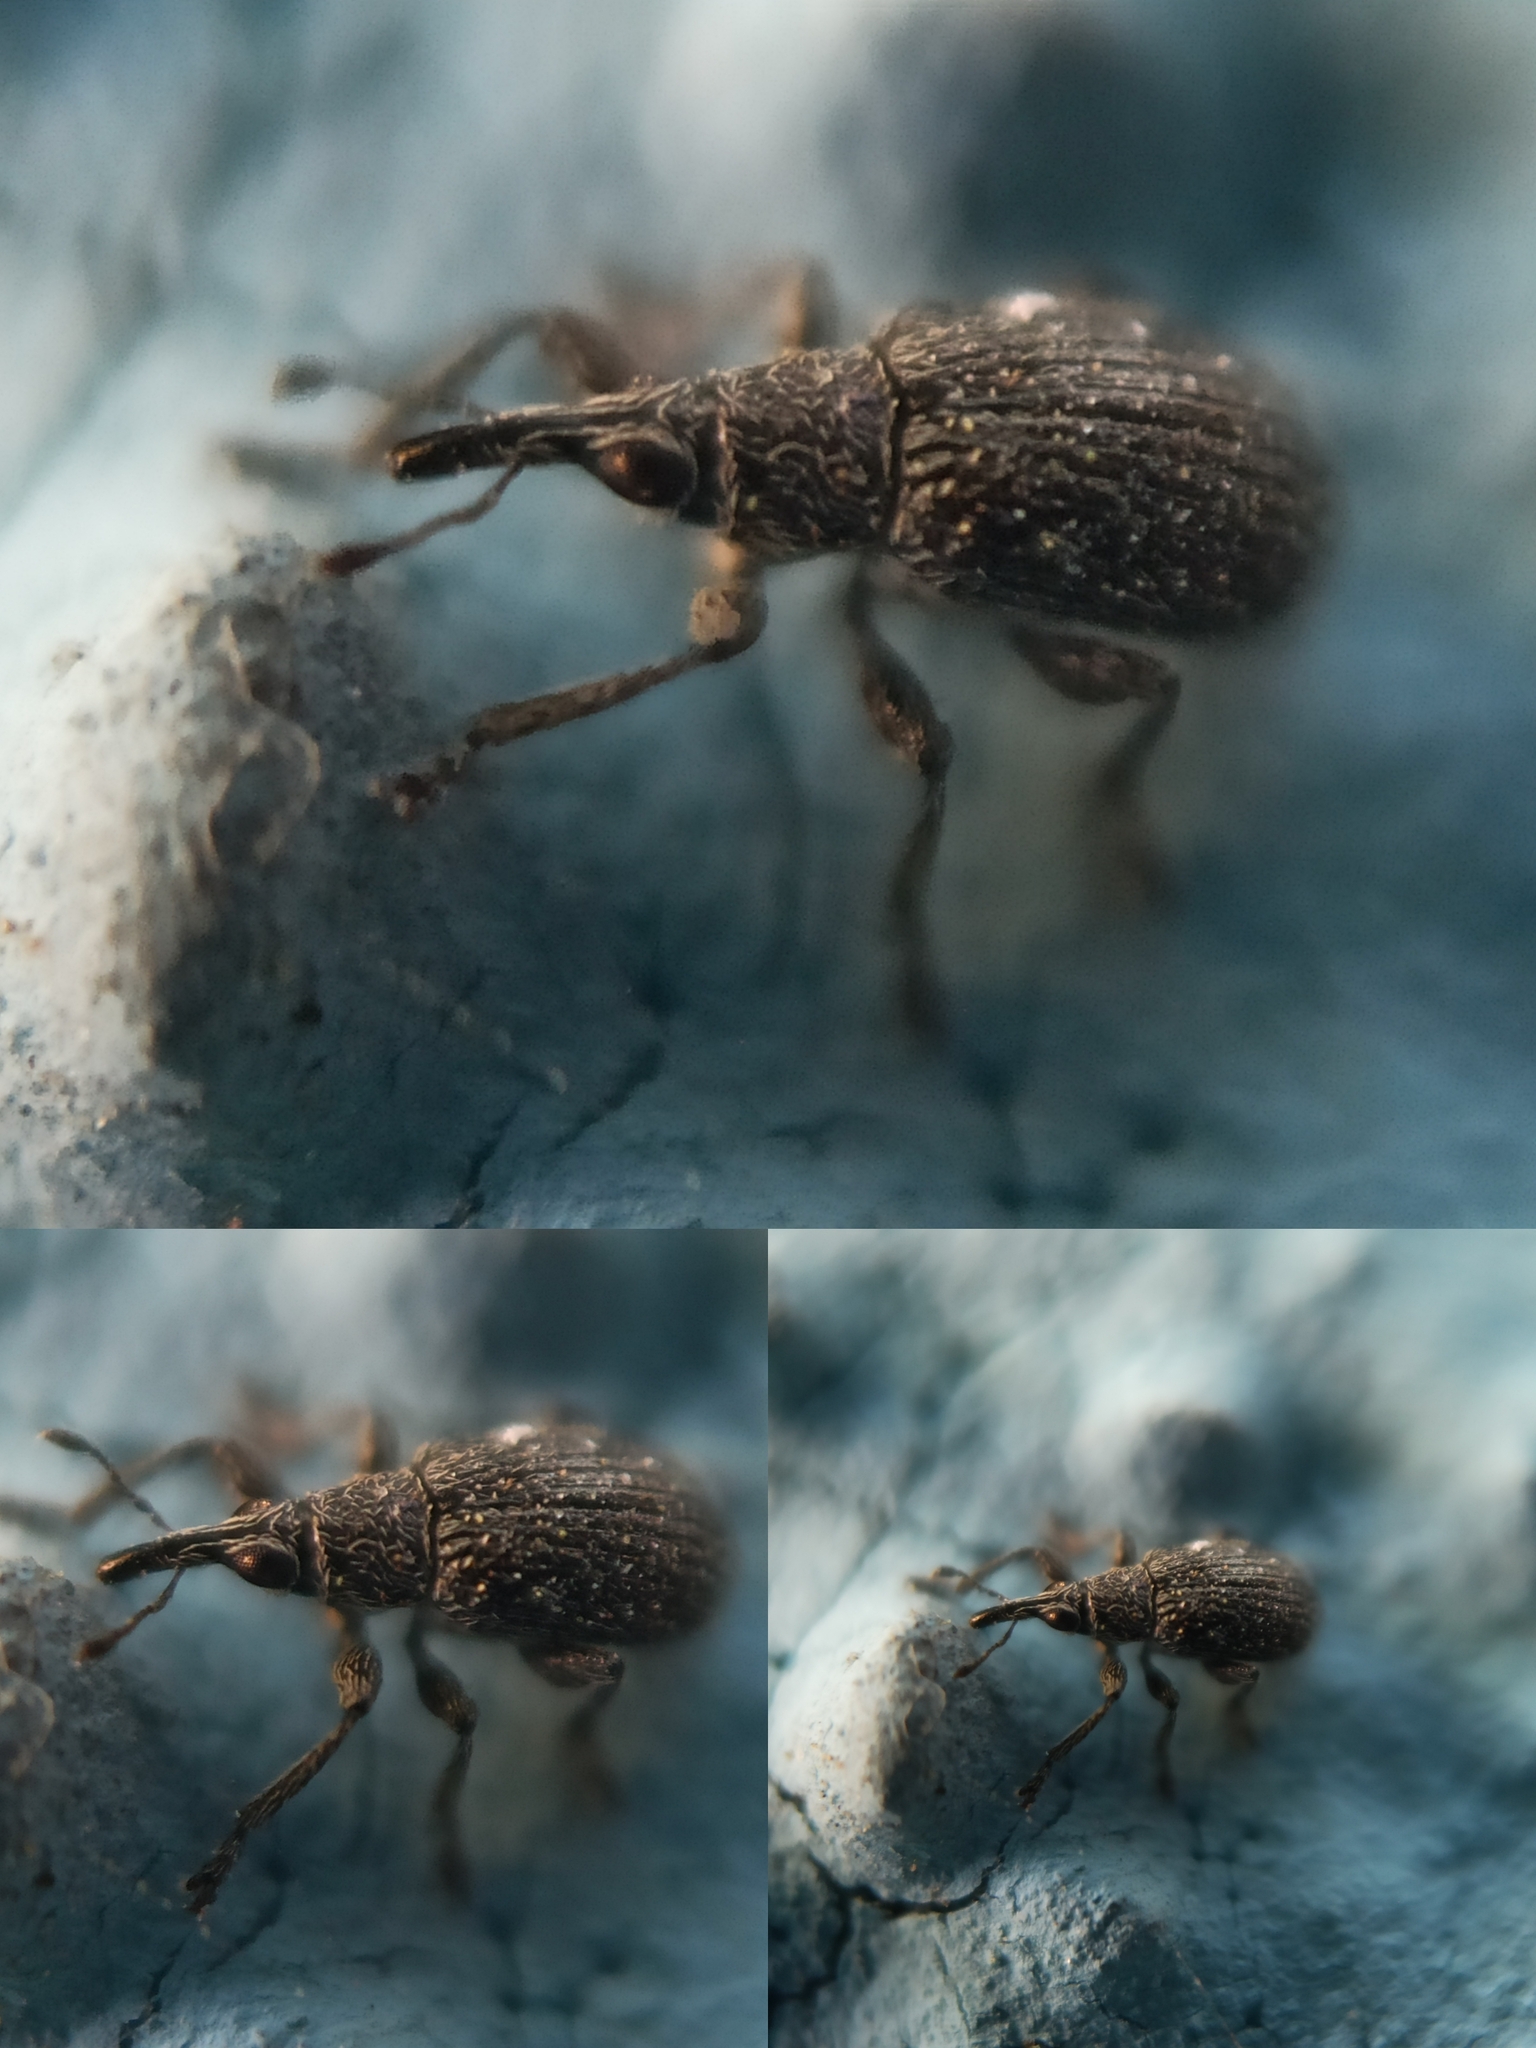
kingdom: Animalia
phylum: Arthropoda
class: Insecta
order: Coleoptera
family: Brentidae
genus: Betulapion
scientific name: Betulapion simile
